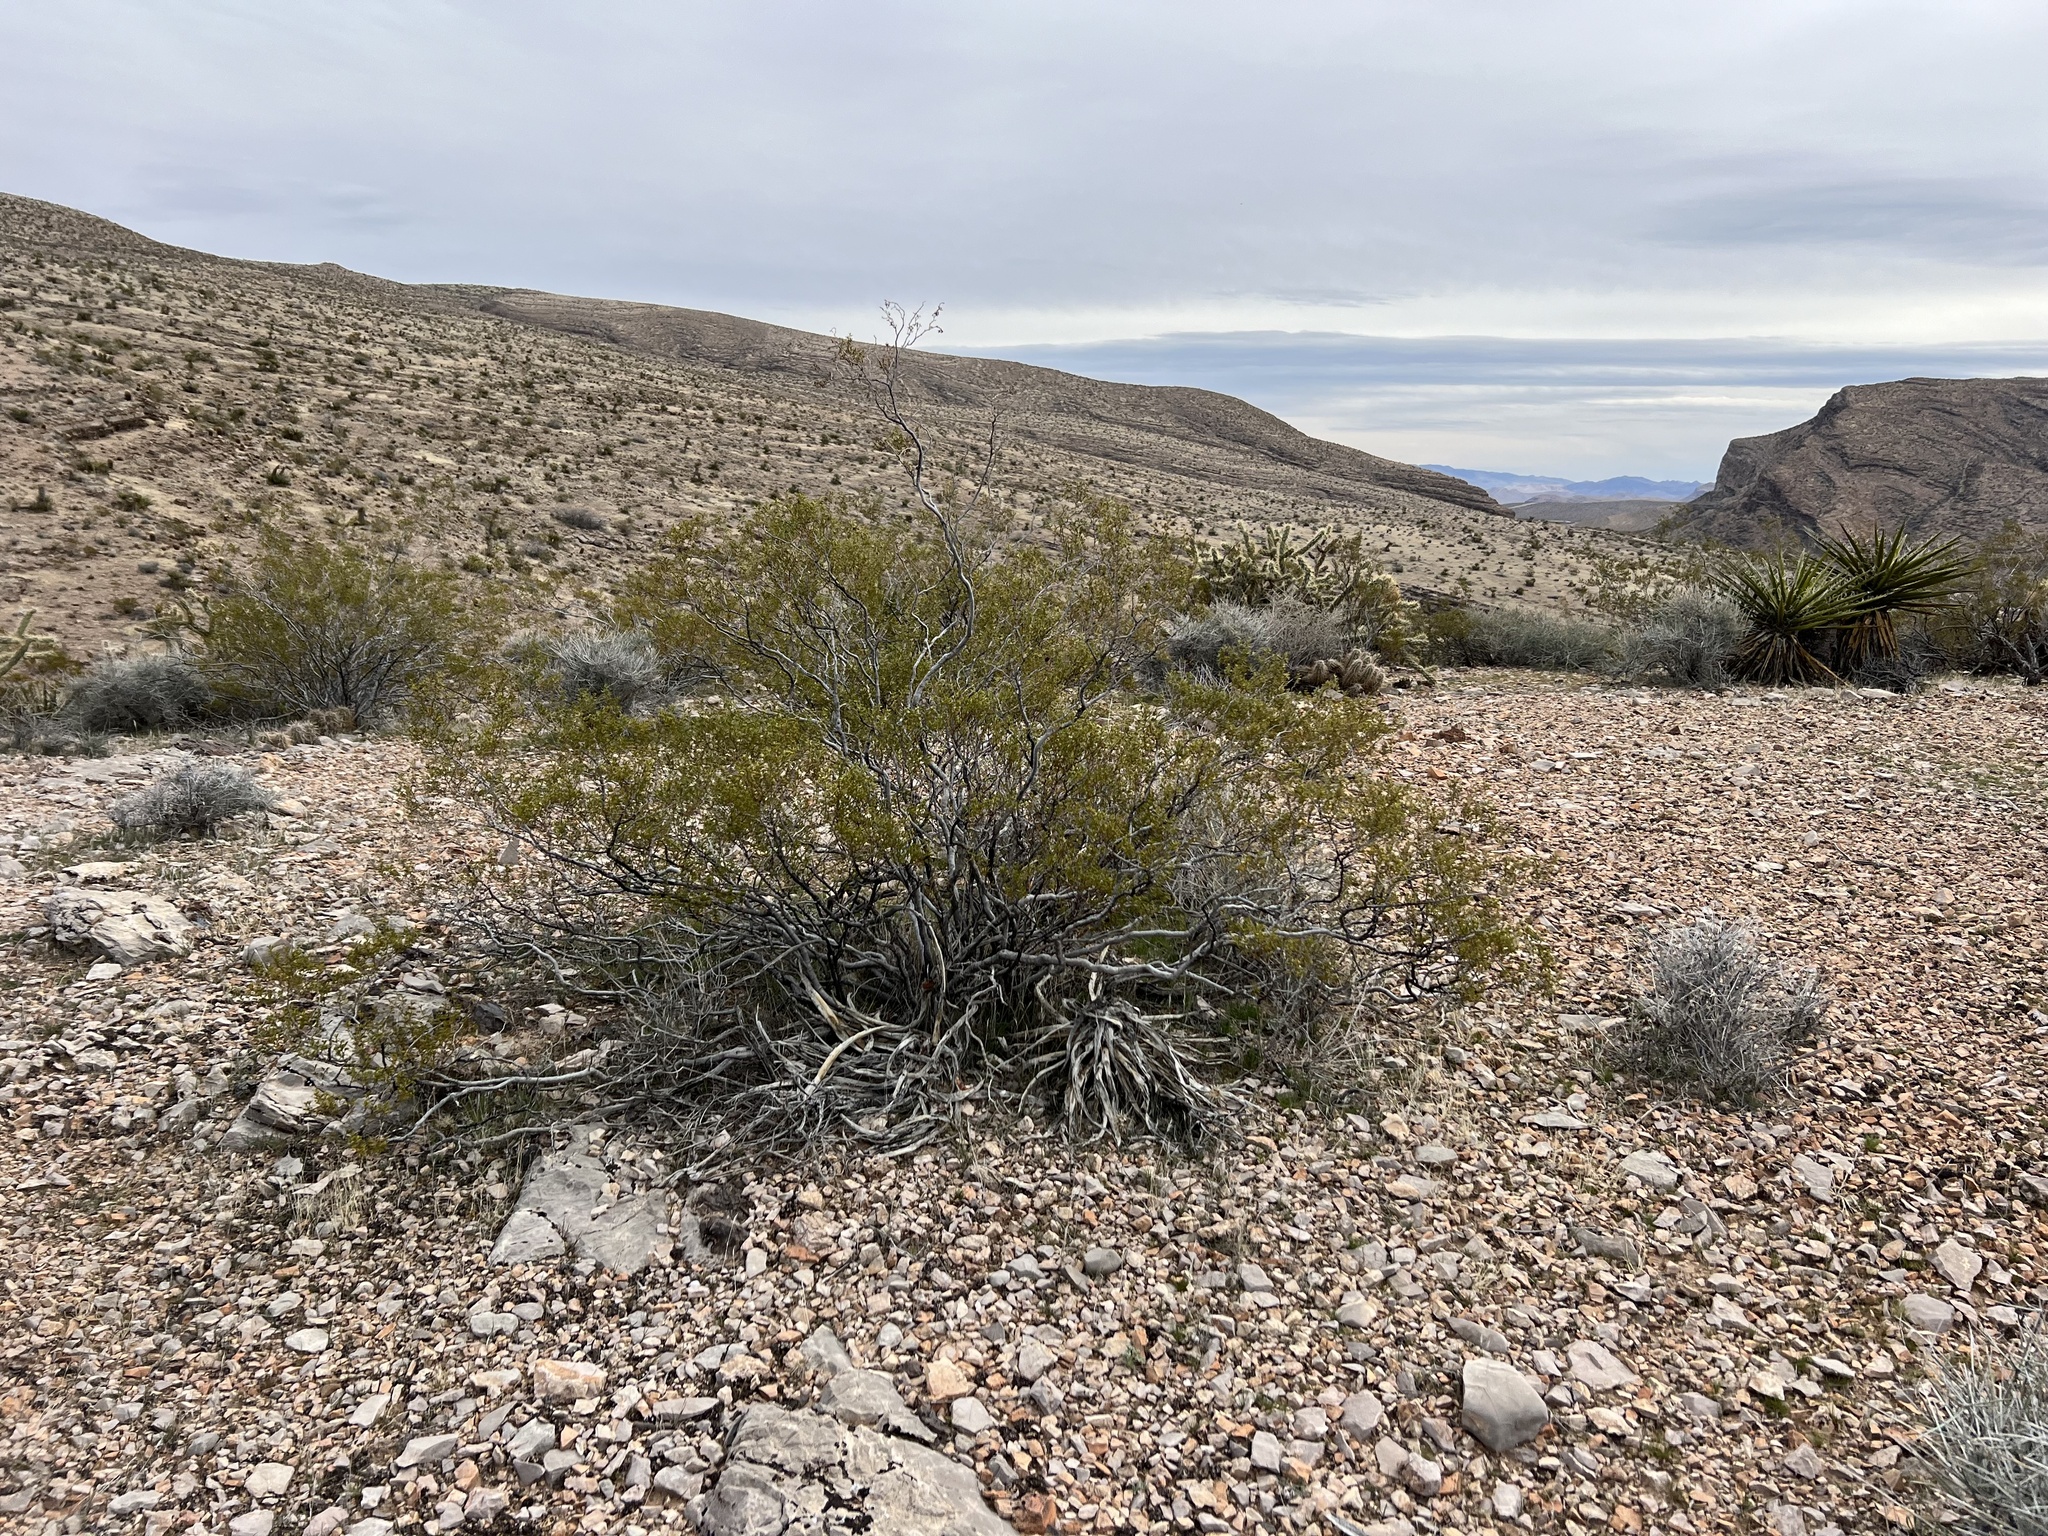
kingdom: Plantae
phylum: Tracheophyta
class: Magnoliopsida
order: Zygophyllales
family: Zygophyllaceae
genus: Larrea
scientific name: Larrea tridentata
